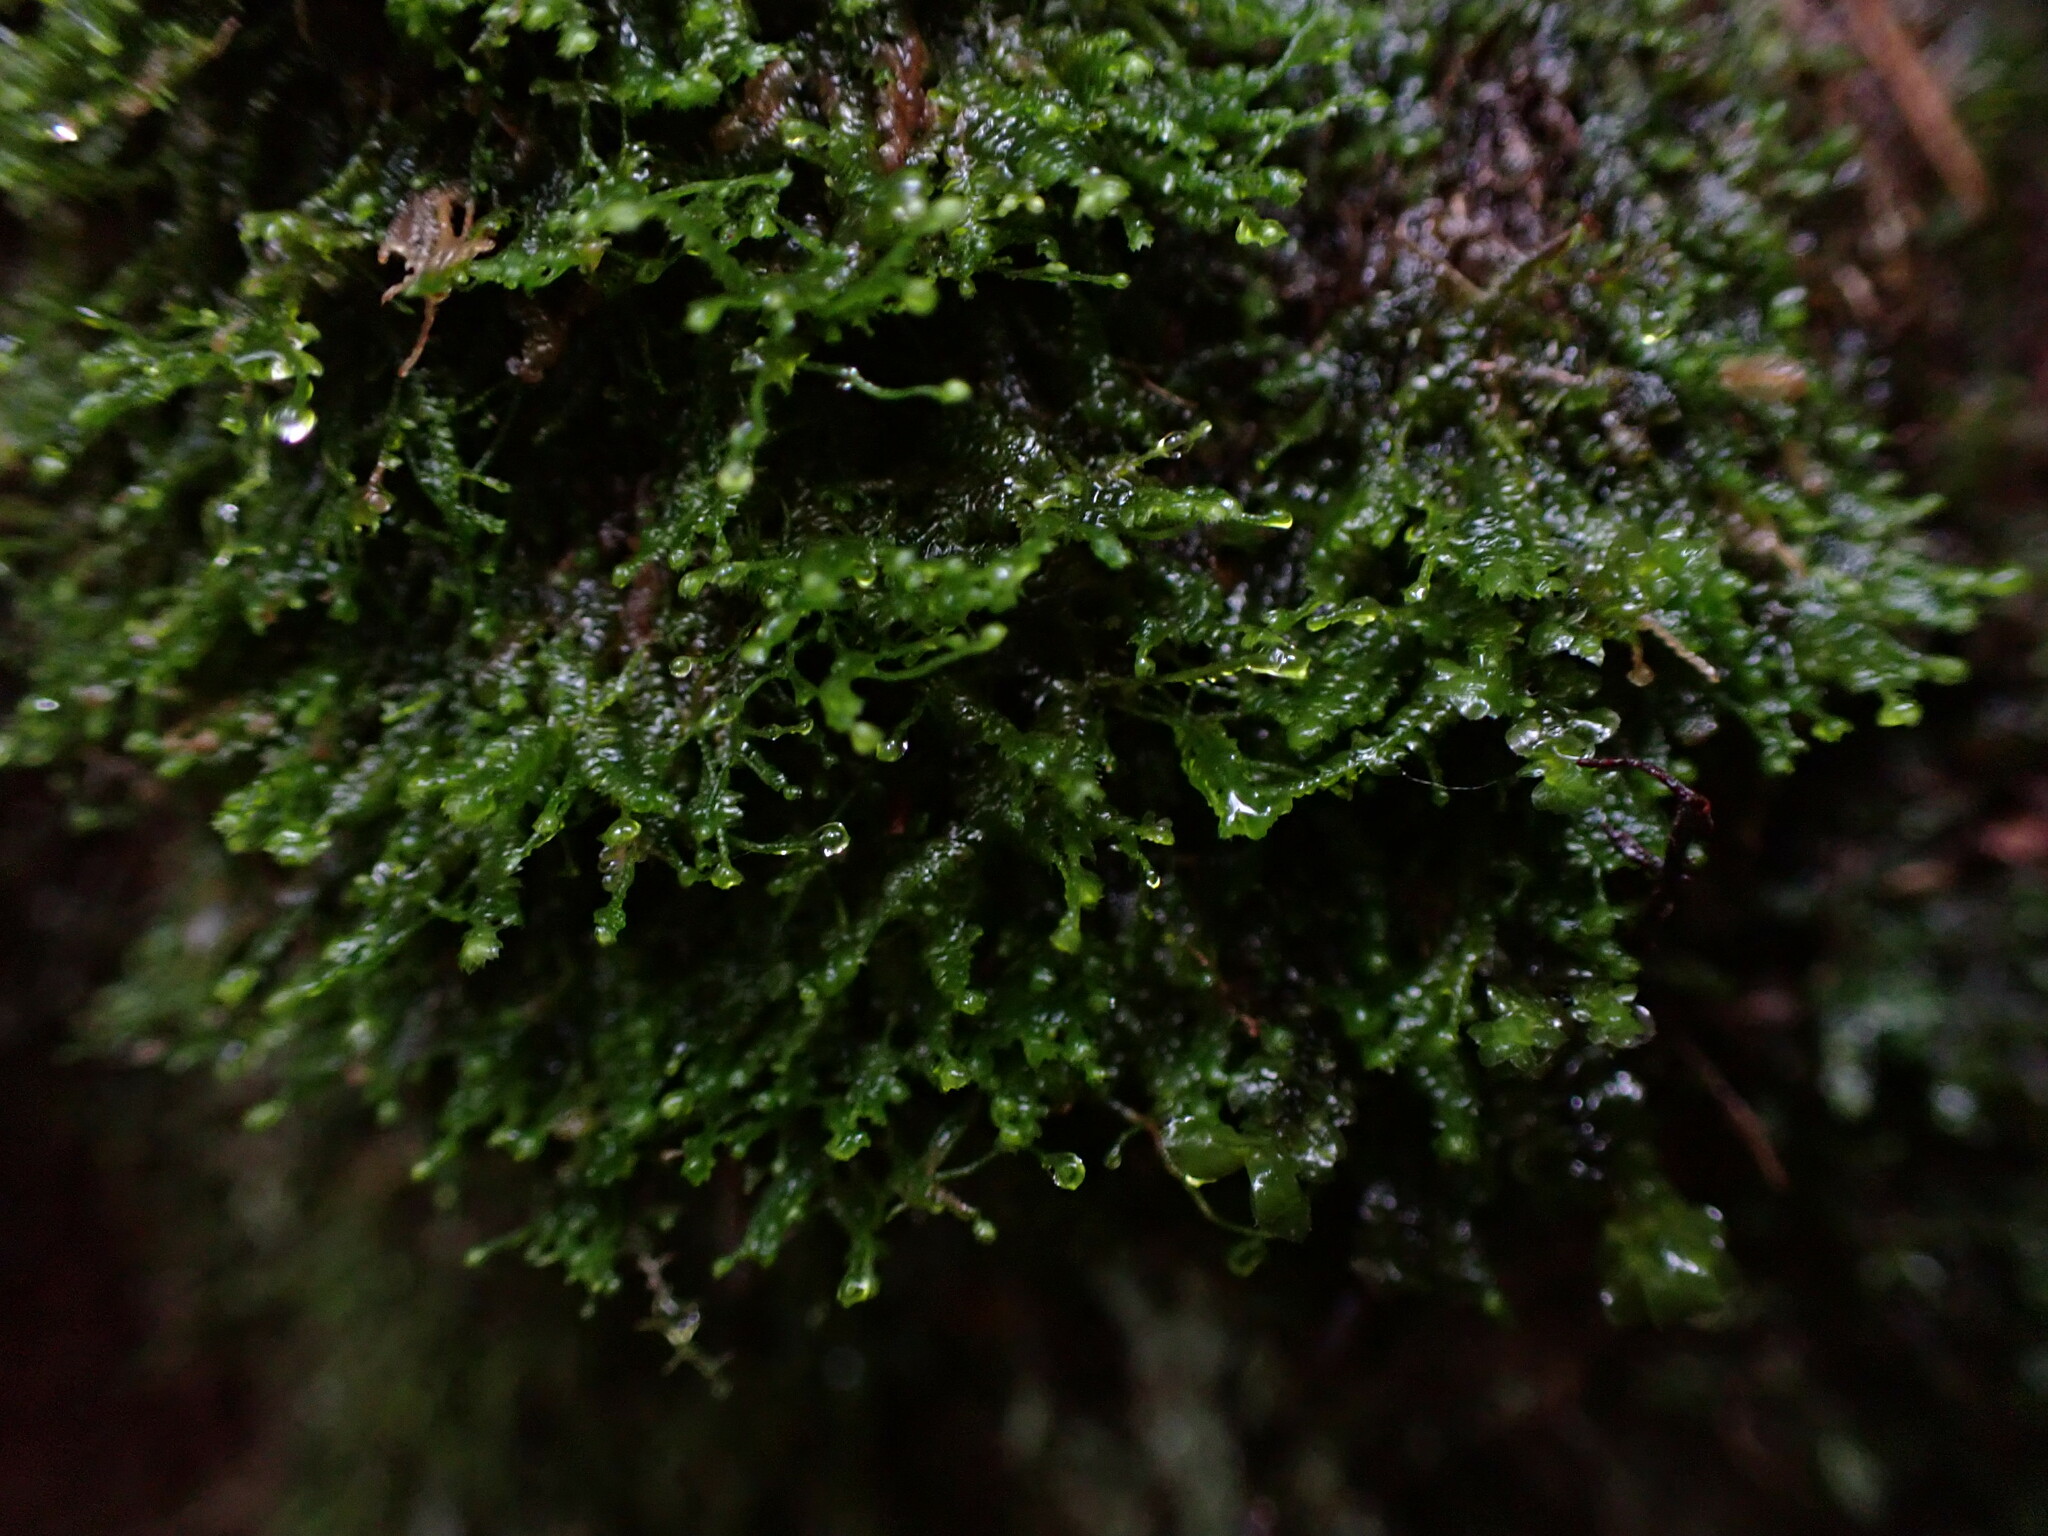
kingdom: Plantae
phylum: Marchantiophyta
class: Jungermanniopsida
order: Jungermanniales
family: Lepidoziaceae
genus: Bazzania
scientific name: Bazzania denudata
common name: Naked whipwort
